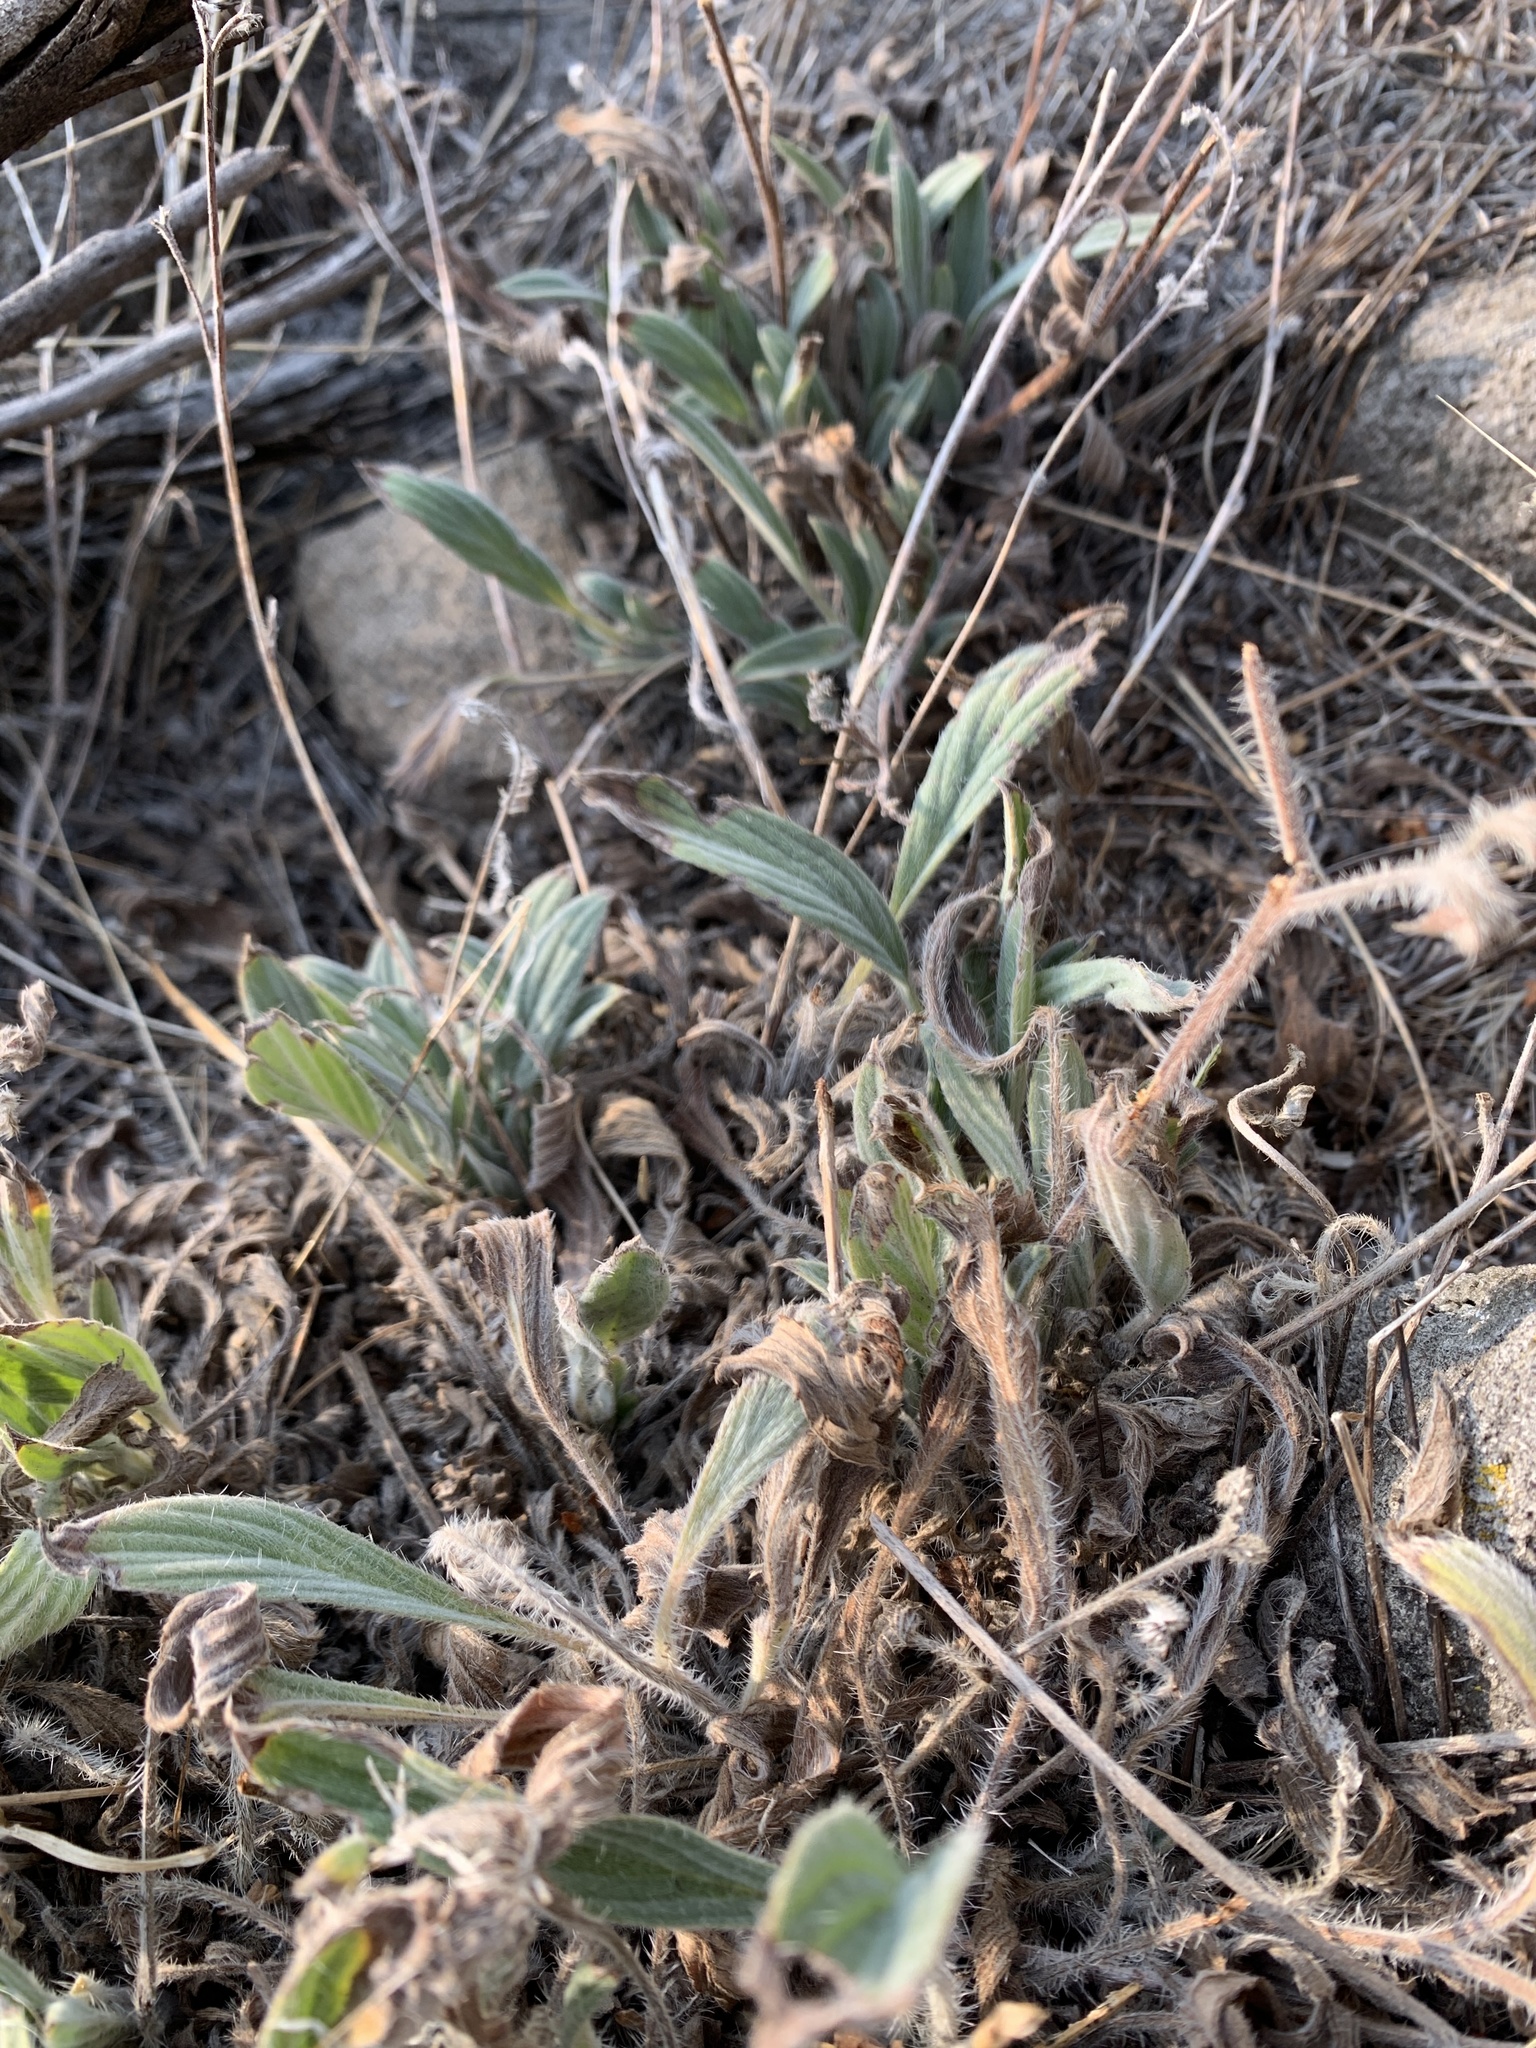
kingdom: Plantae
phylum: Tracheophyta
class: Magnoliopsida
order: Boraginales
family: Hydrophyllaceae
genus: Phacelia
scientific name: Phacelia hastata
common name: Silver-leaved phacelia
